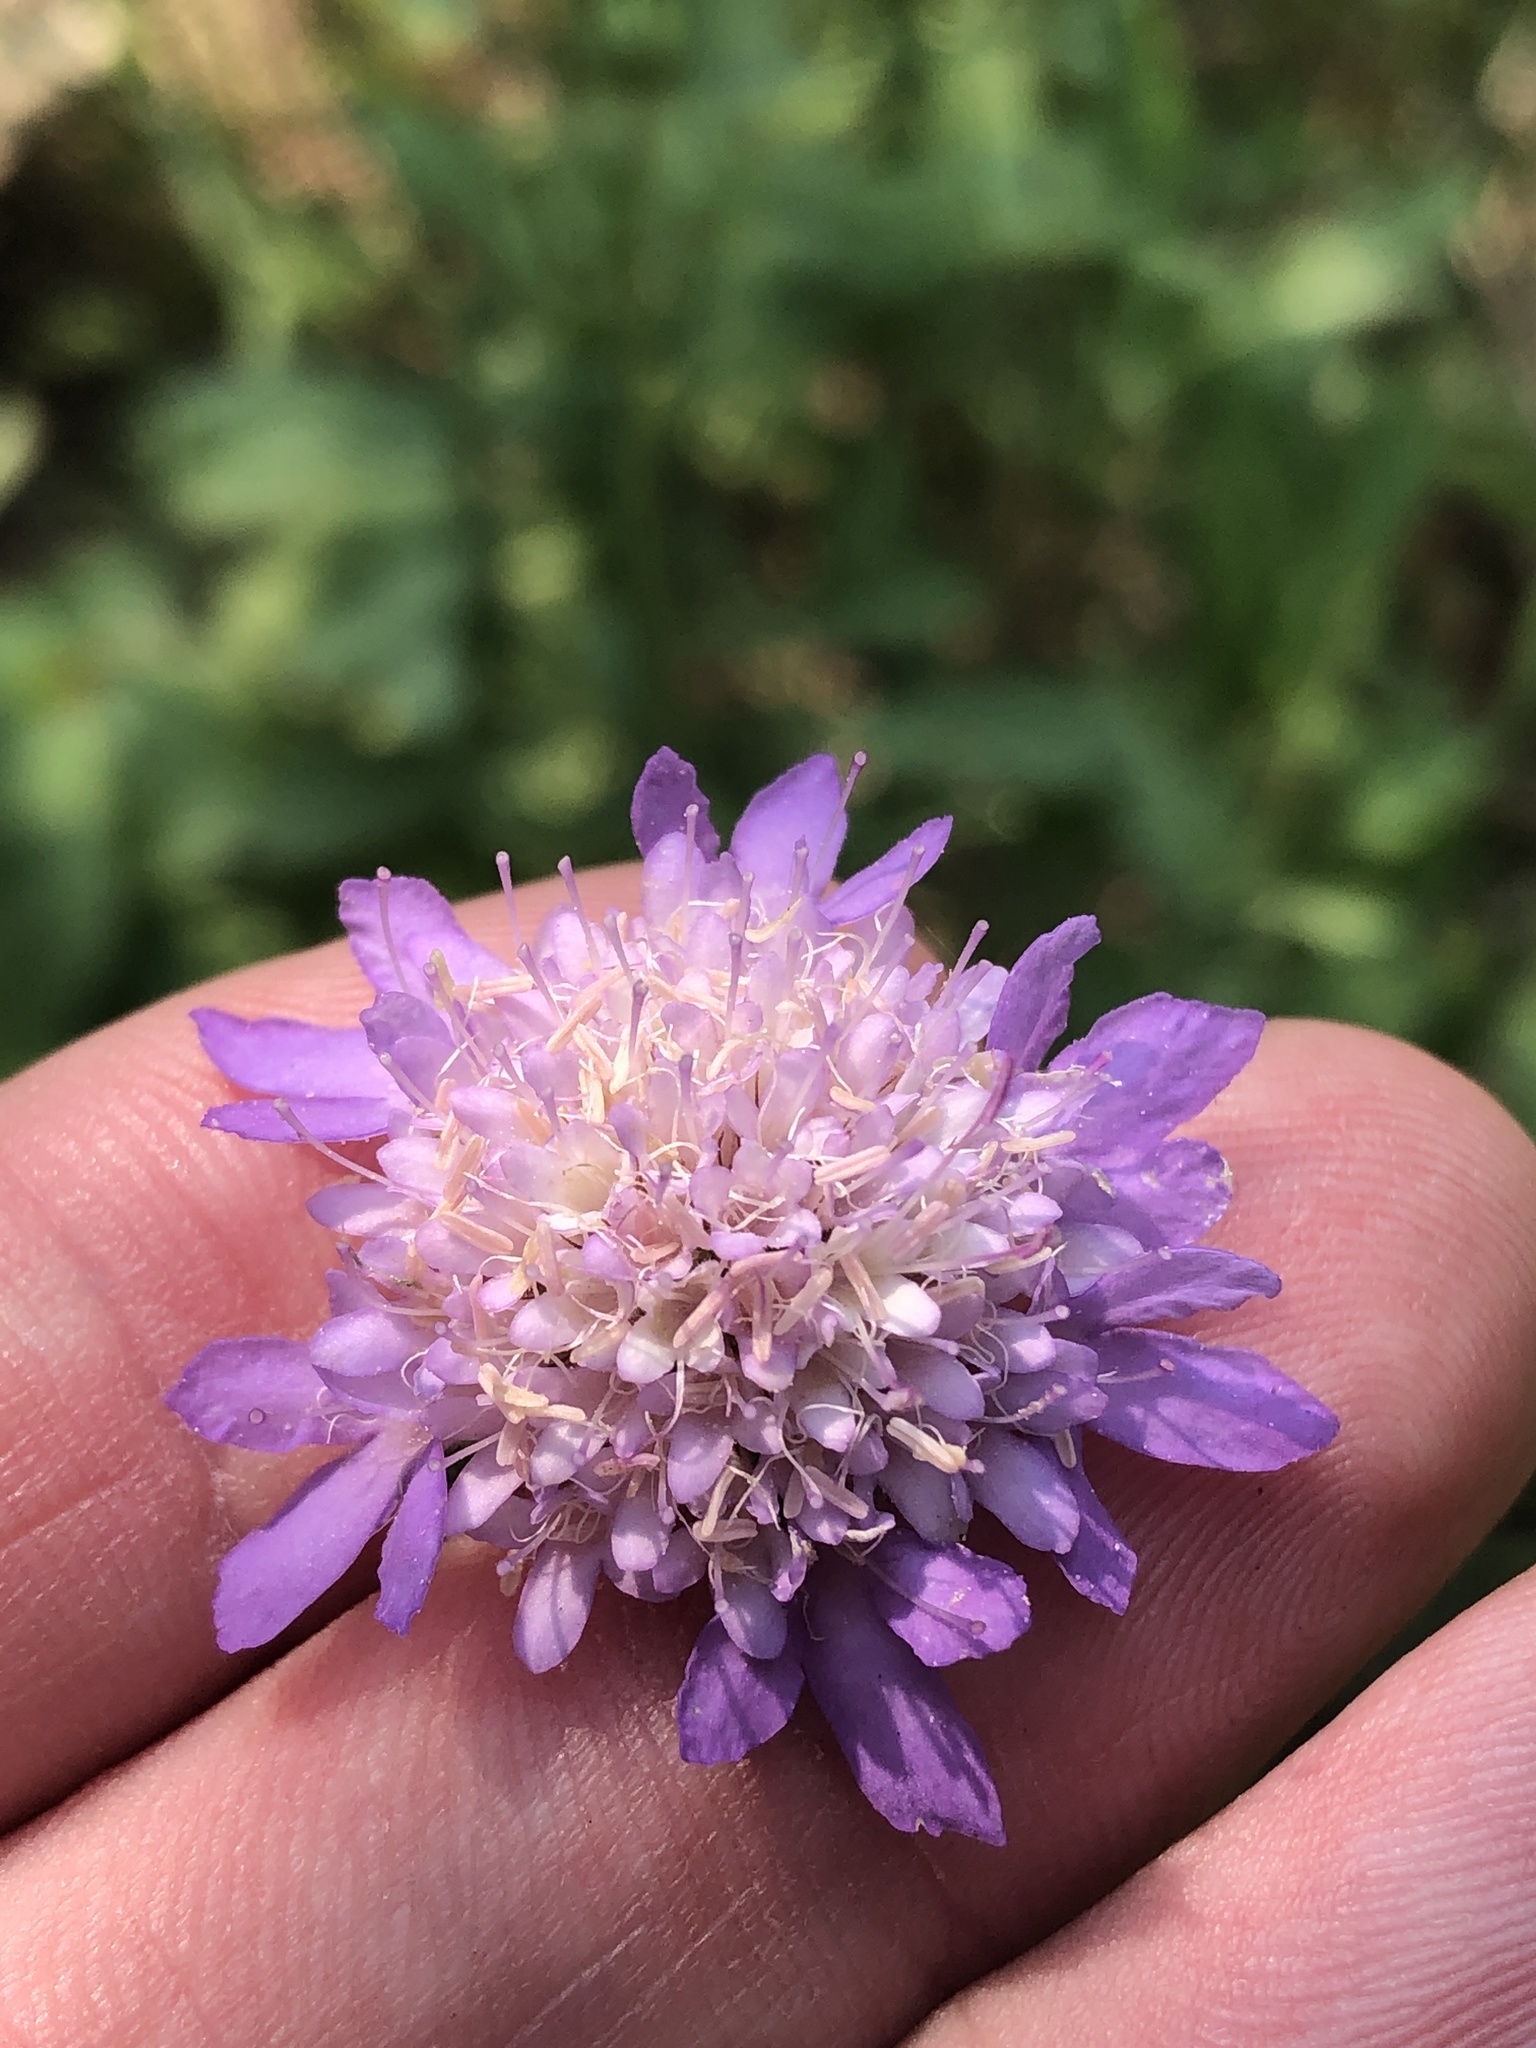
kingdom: Plantae
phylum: Tracheophyta
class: Magnoliopsida
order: Dipsacales
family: Caprifoliaceae
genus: Sixalix
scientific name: Sixalix atropurpurea
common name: Sweet scabious
